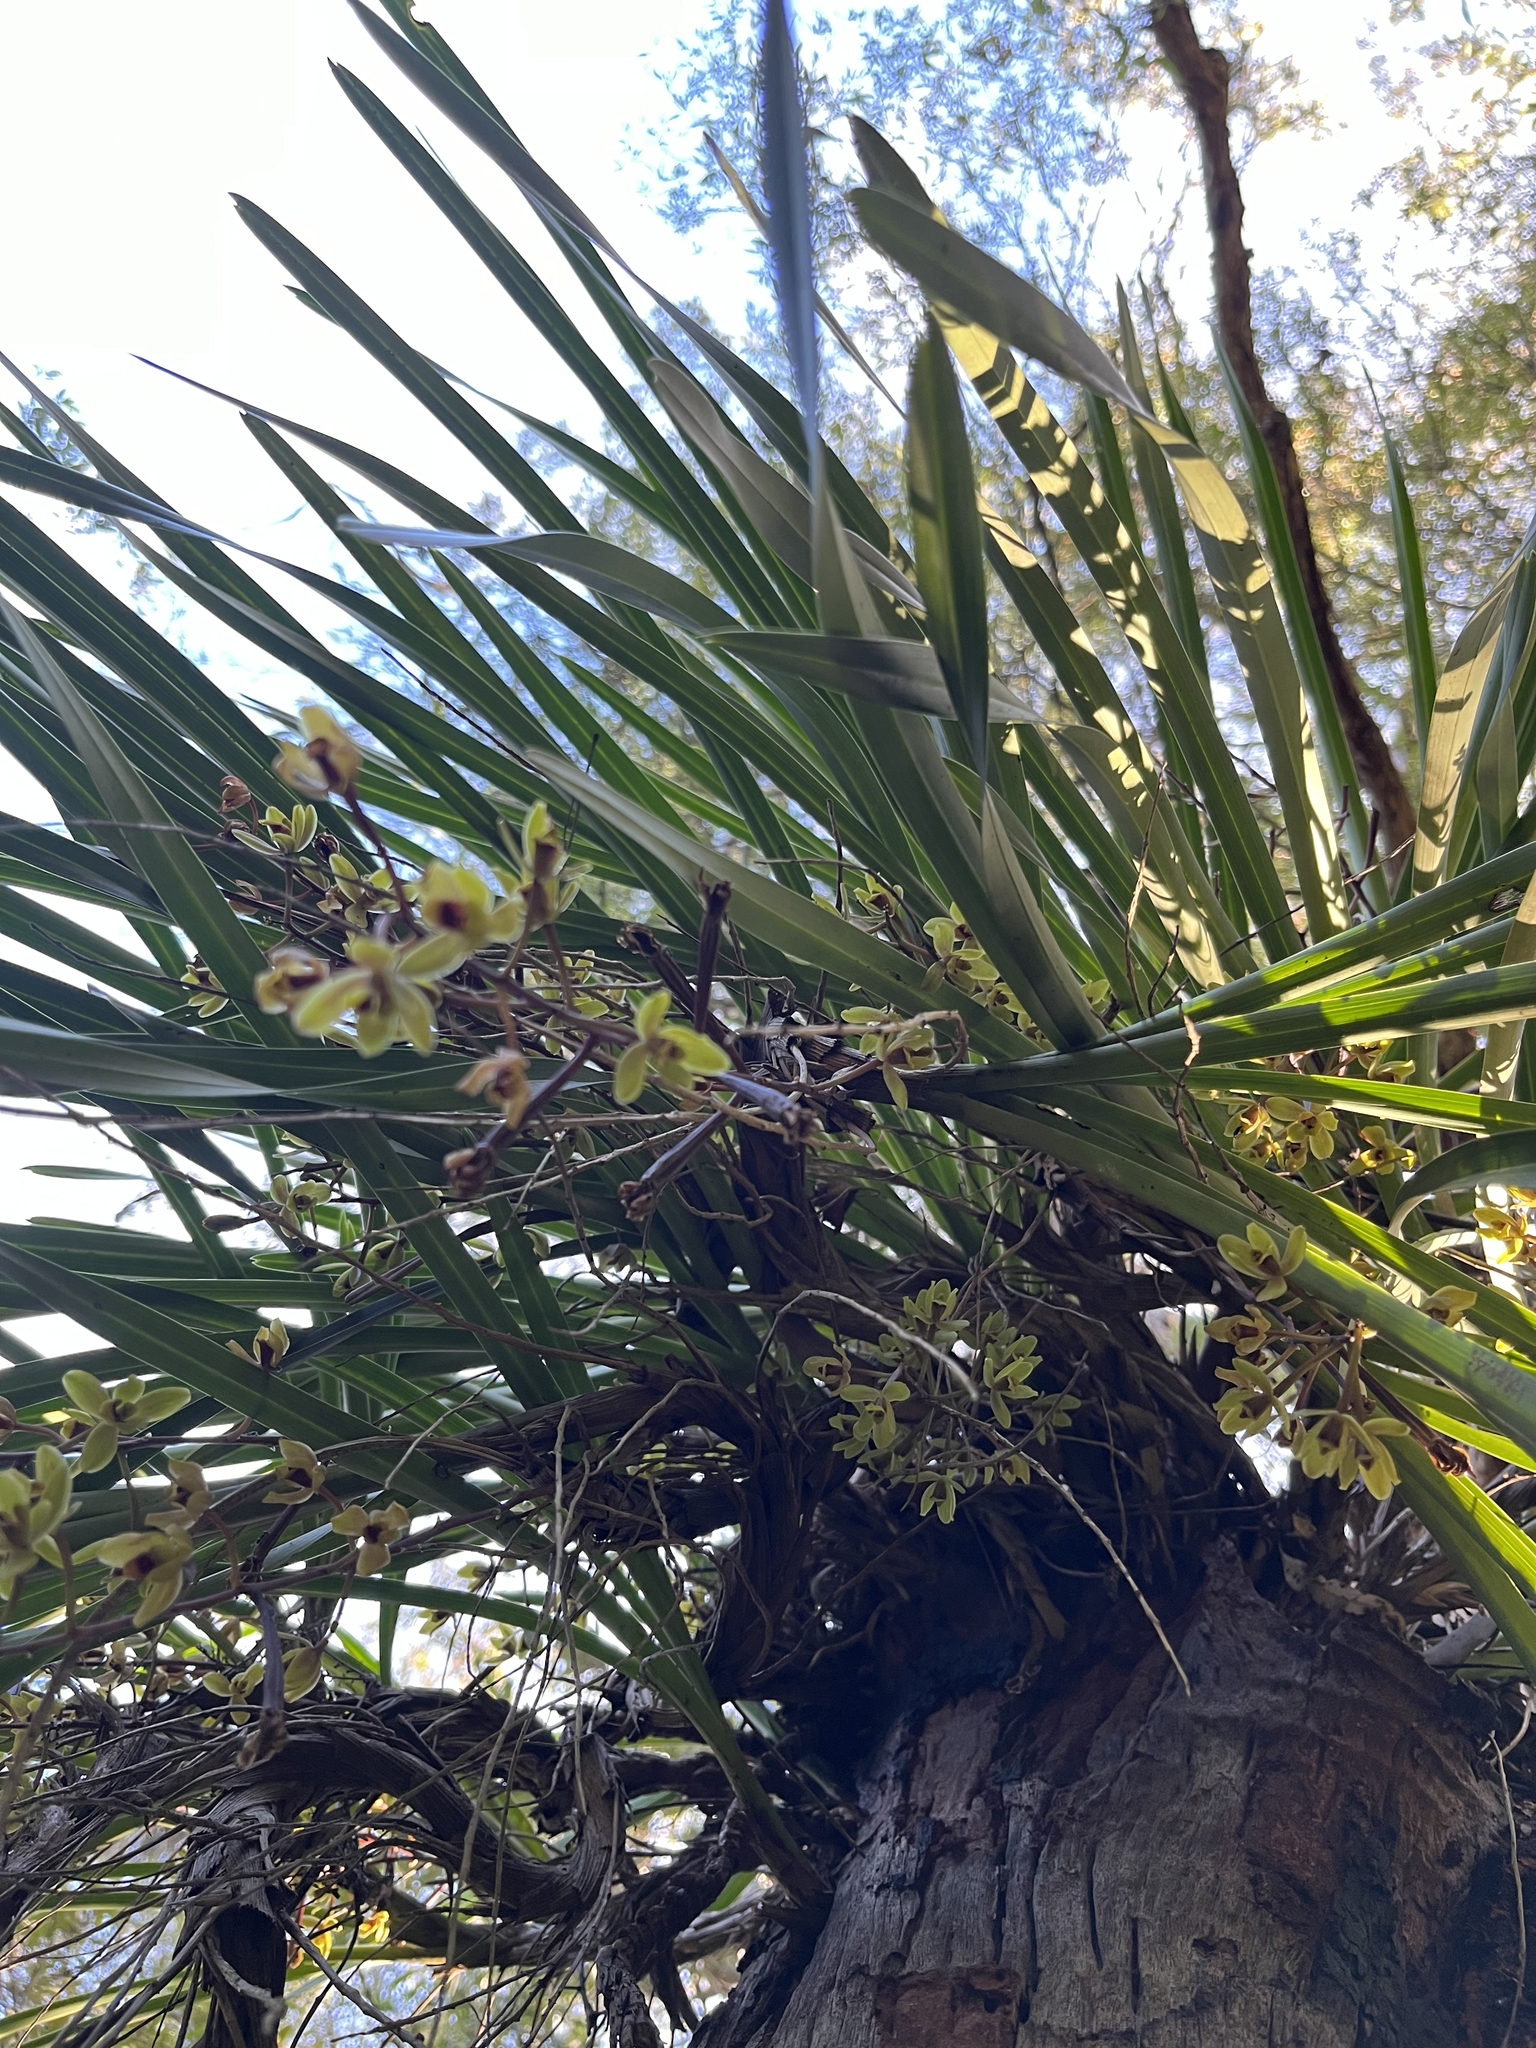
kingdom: Plantae
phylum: Tracheophyta
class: Liliopsida
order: Asparagales
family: Orchidaceae
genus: Cymbidium
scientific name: Cymbidium suave
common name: Snake orchid
